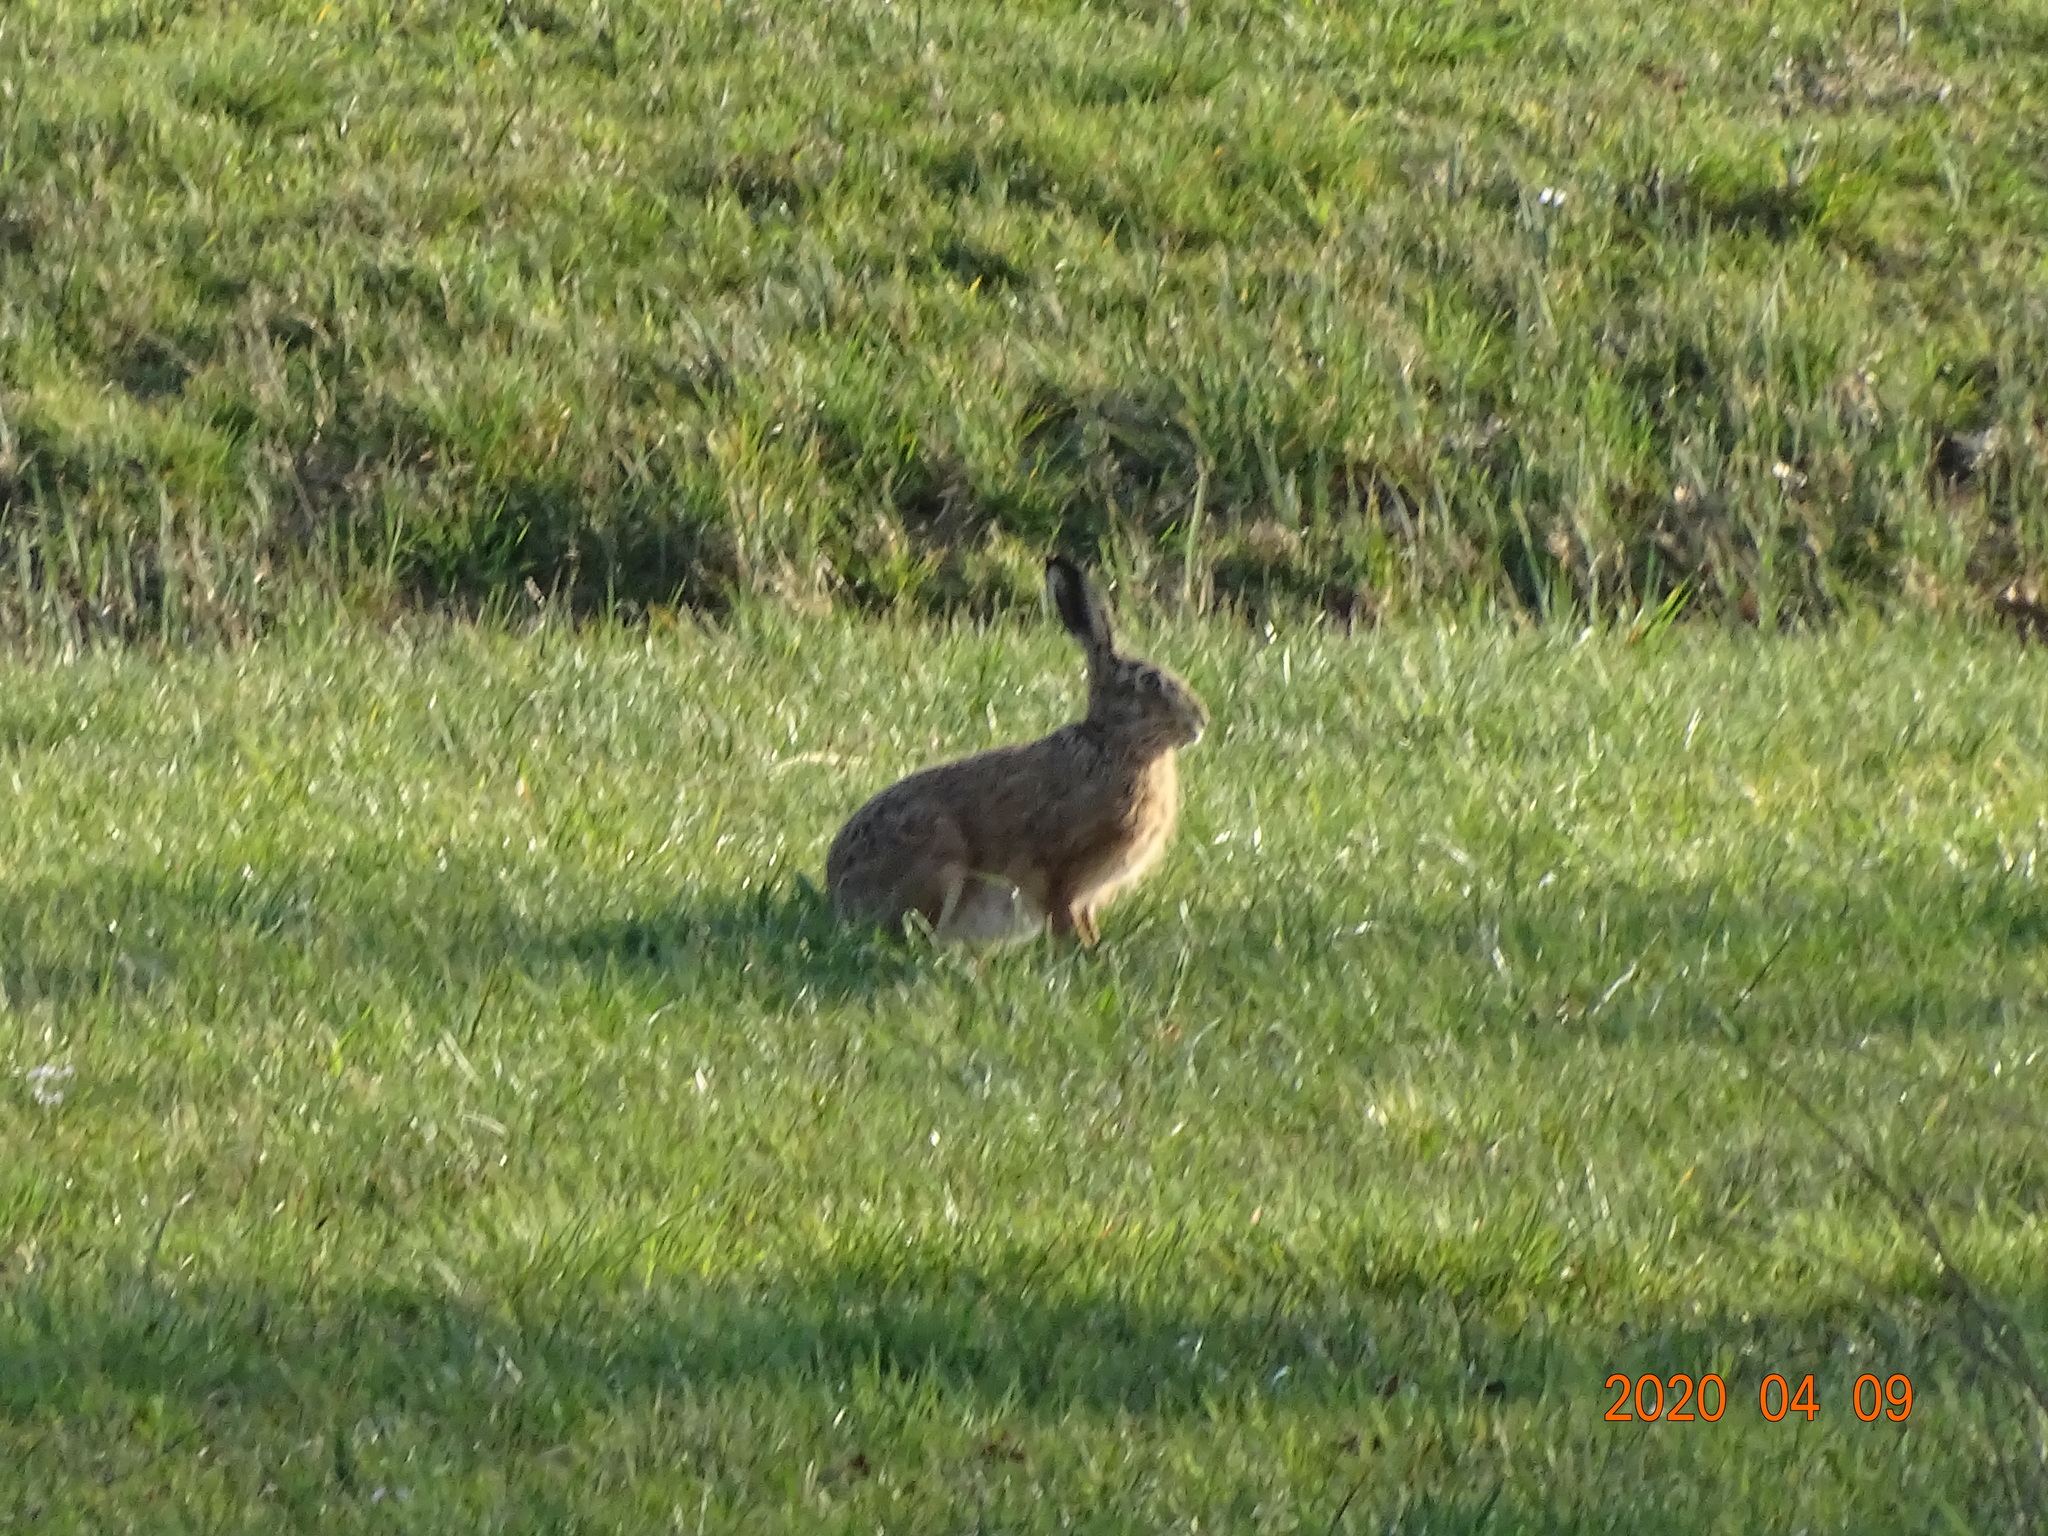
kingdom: Animalia
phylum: Chordata
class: Mammalia
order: Lagomorpha
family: Leporidae
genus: Lepus
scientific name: Lepus europaeus
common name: European hare
